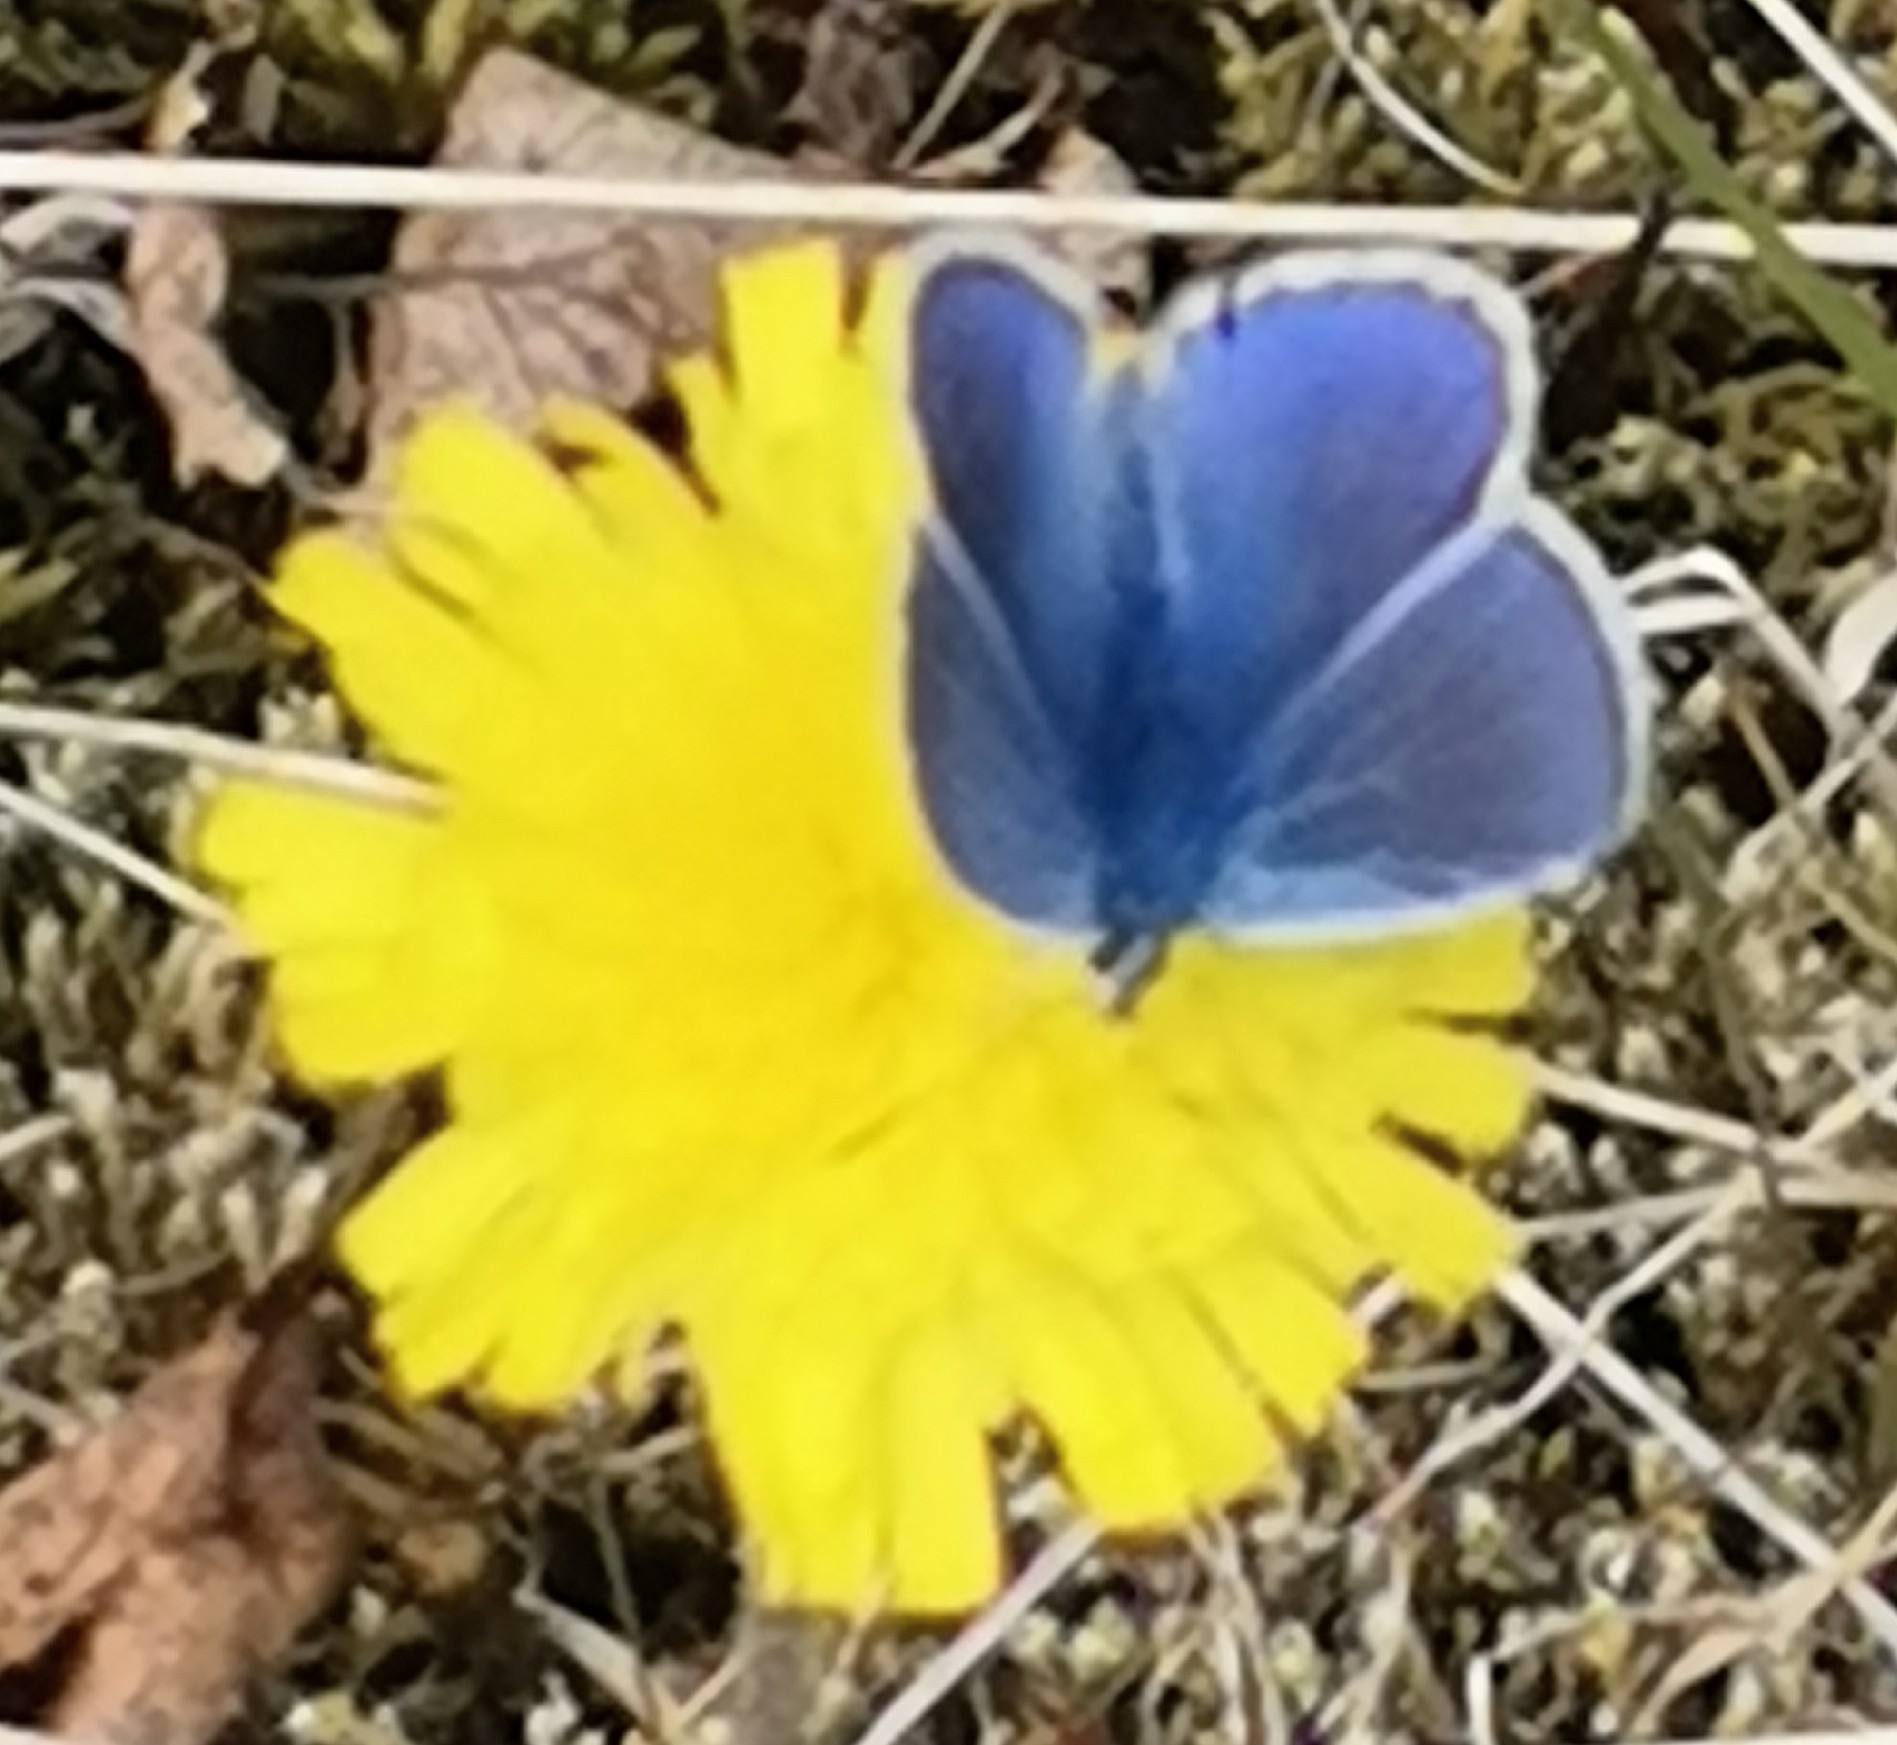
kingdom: Animalia
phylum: Arthropoda
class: Insecta
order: Lepidoptera
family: Lycaenidae
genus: Polyommatus
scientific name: Polyommatus icarus
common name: Common blue
